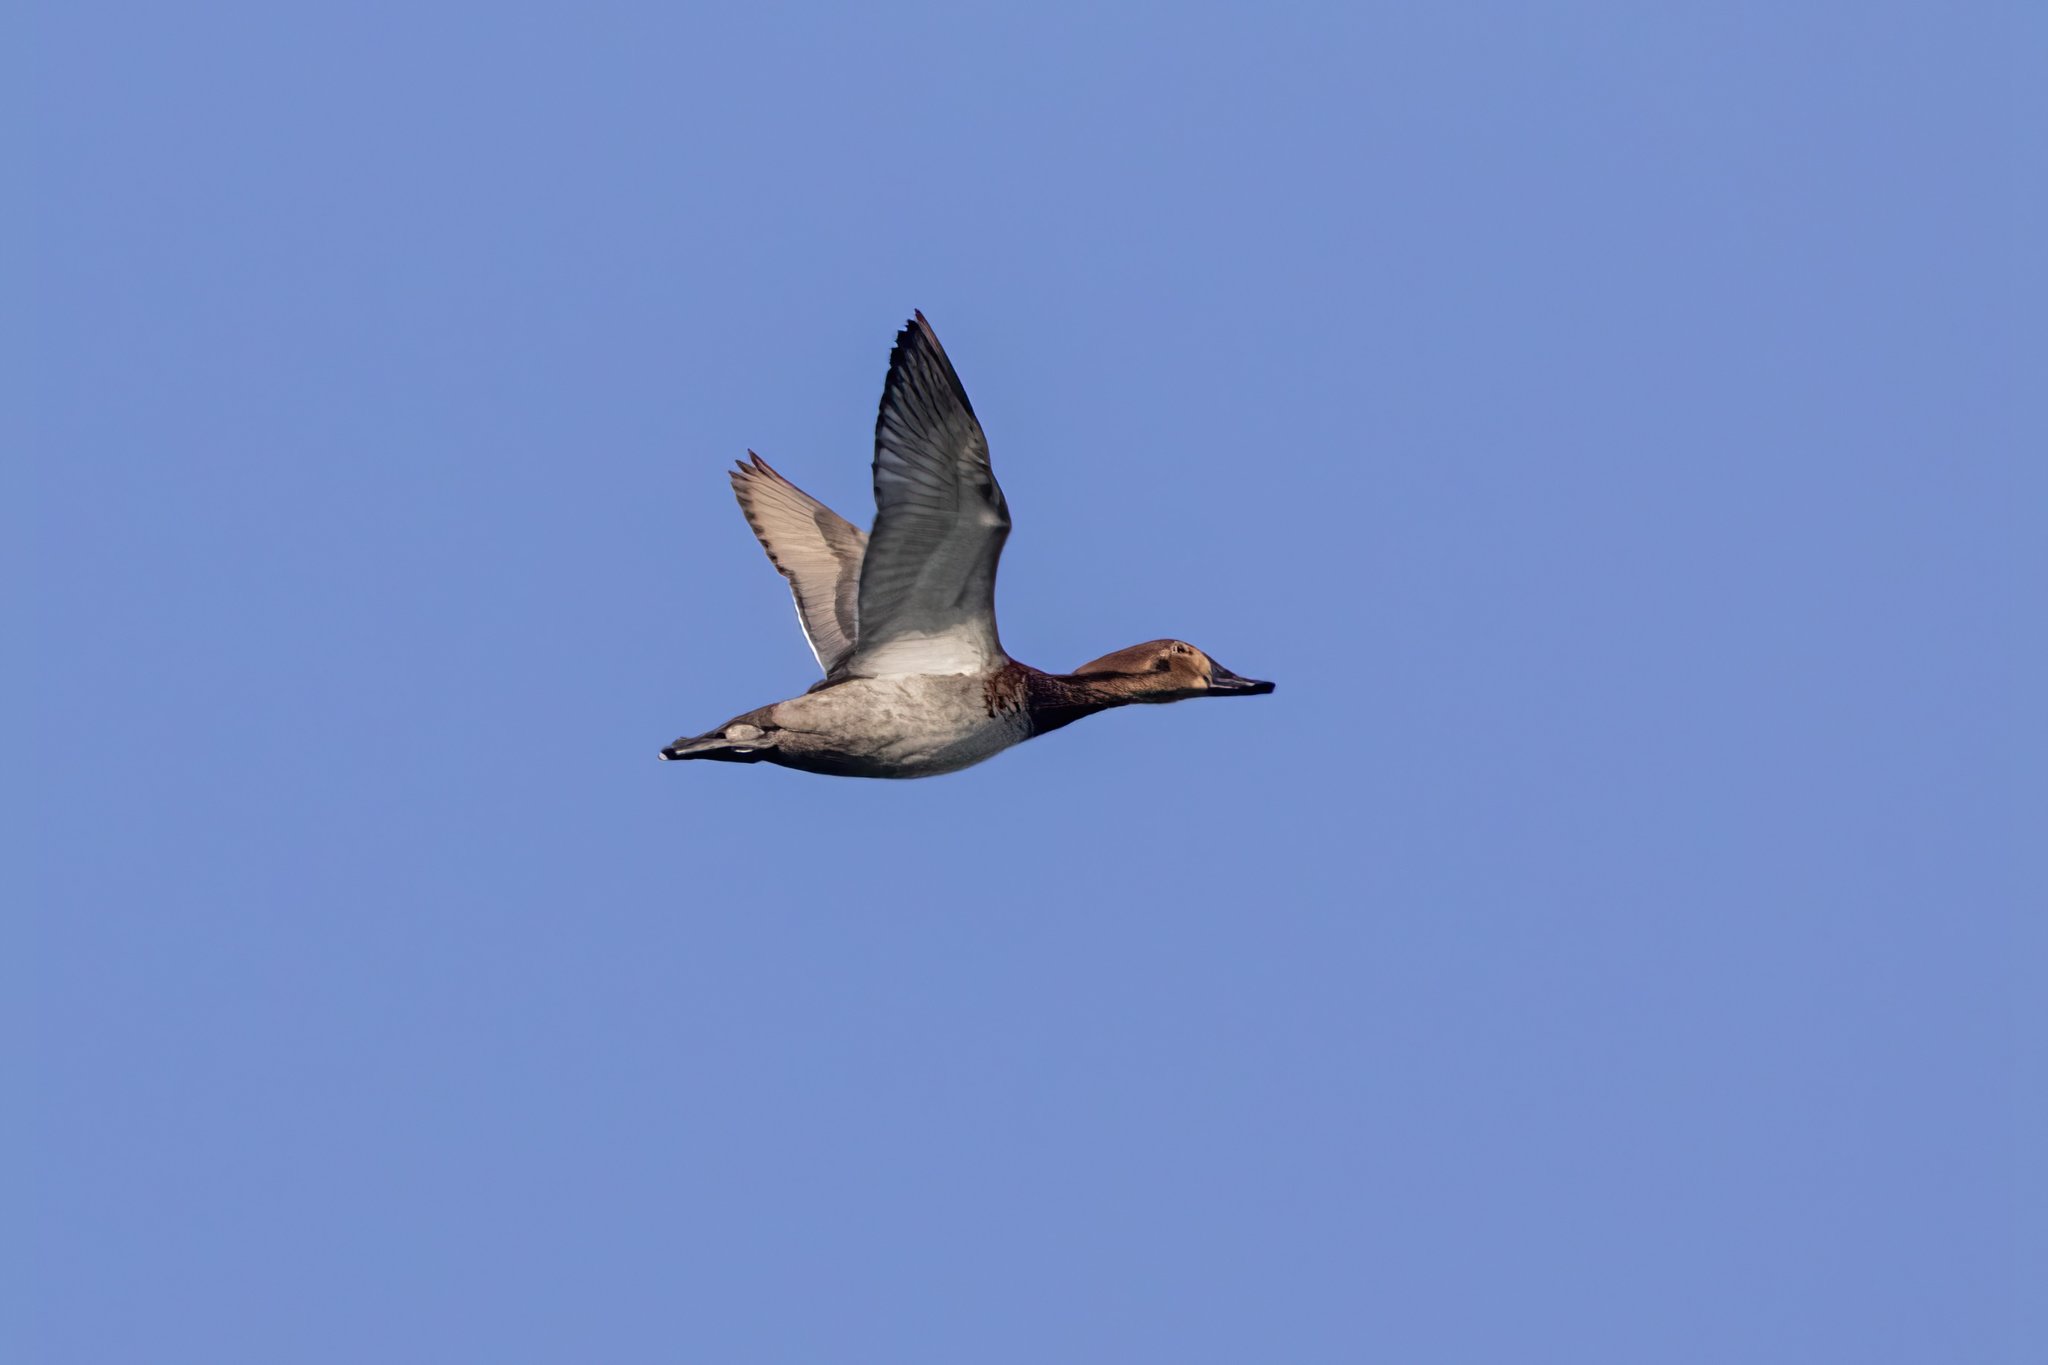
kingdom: Animalia
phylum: Chordata
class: Aves
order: Anseriformes
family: Anatidae
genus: Aythya
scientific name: Aythya ferina
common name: Common pochard
